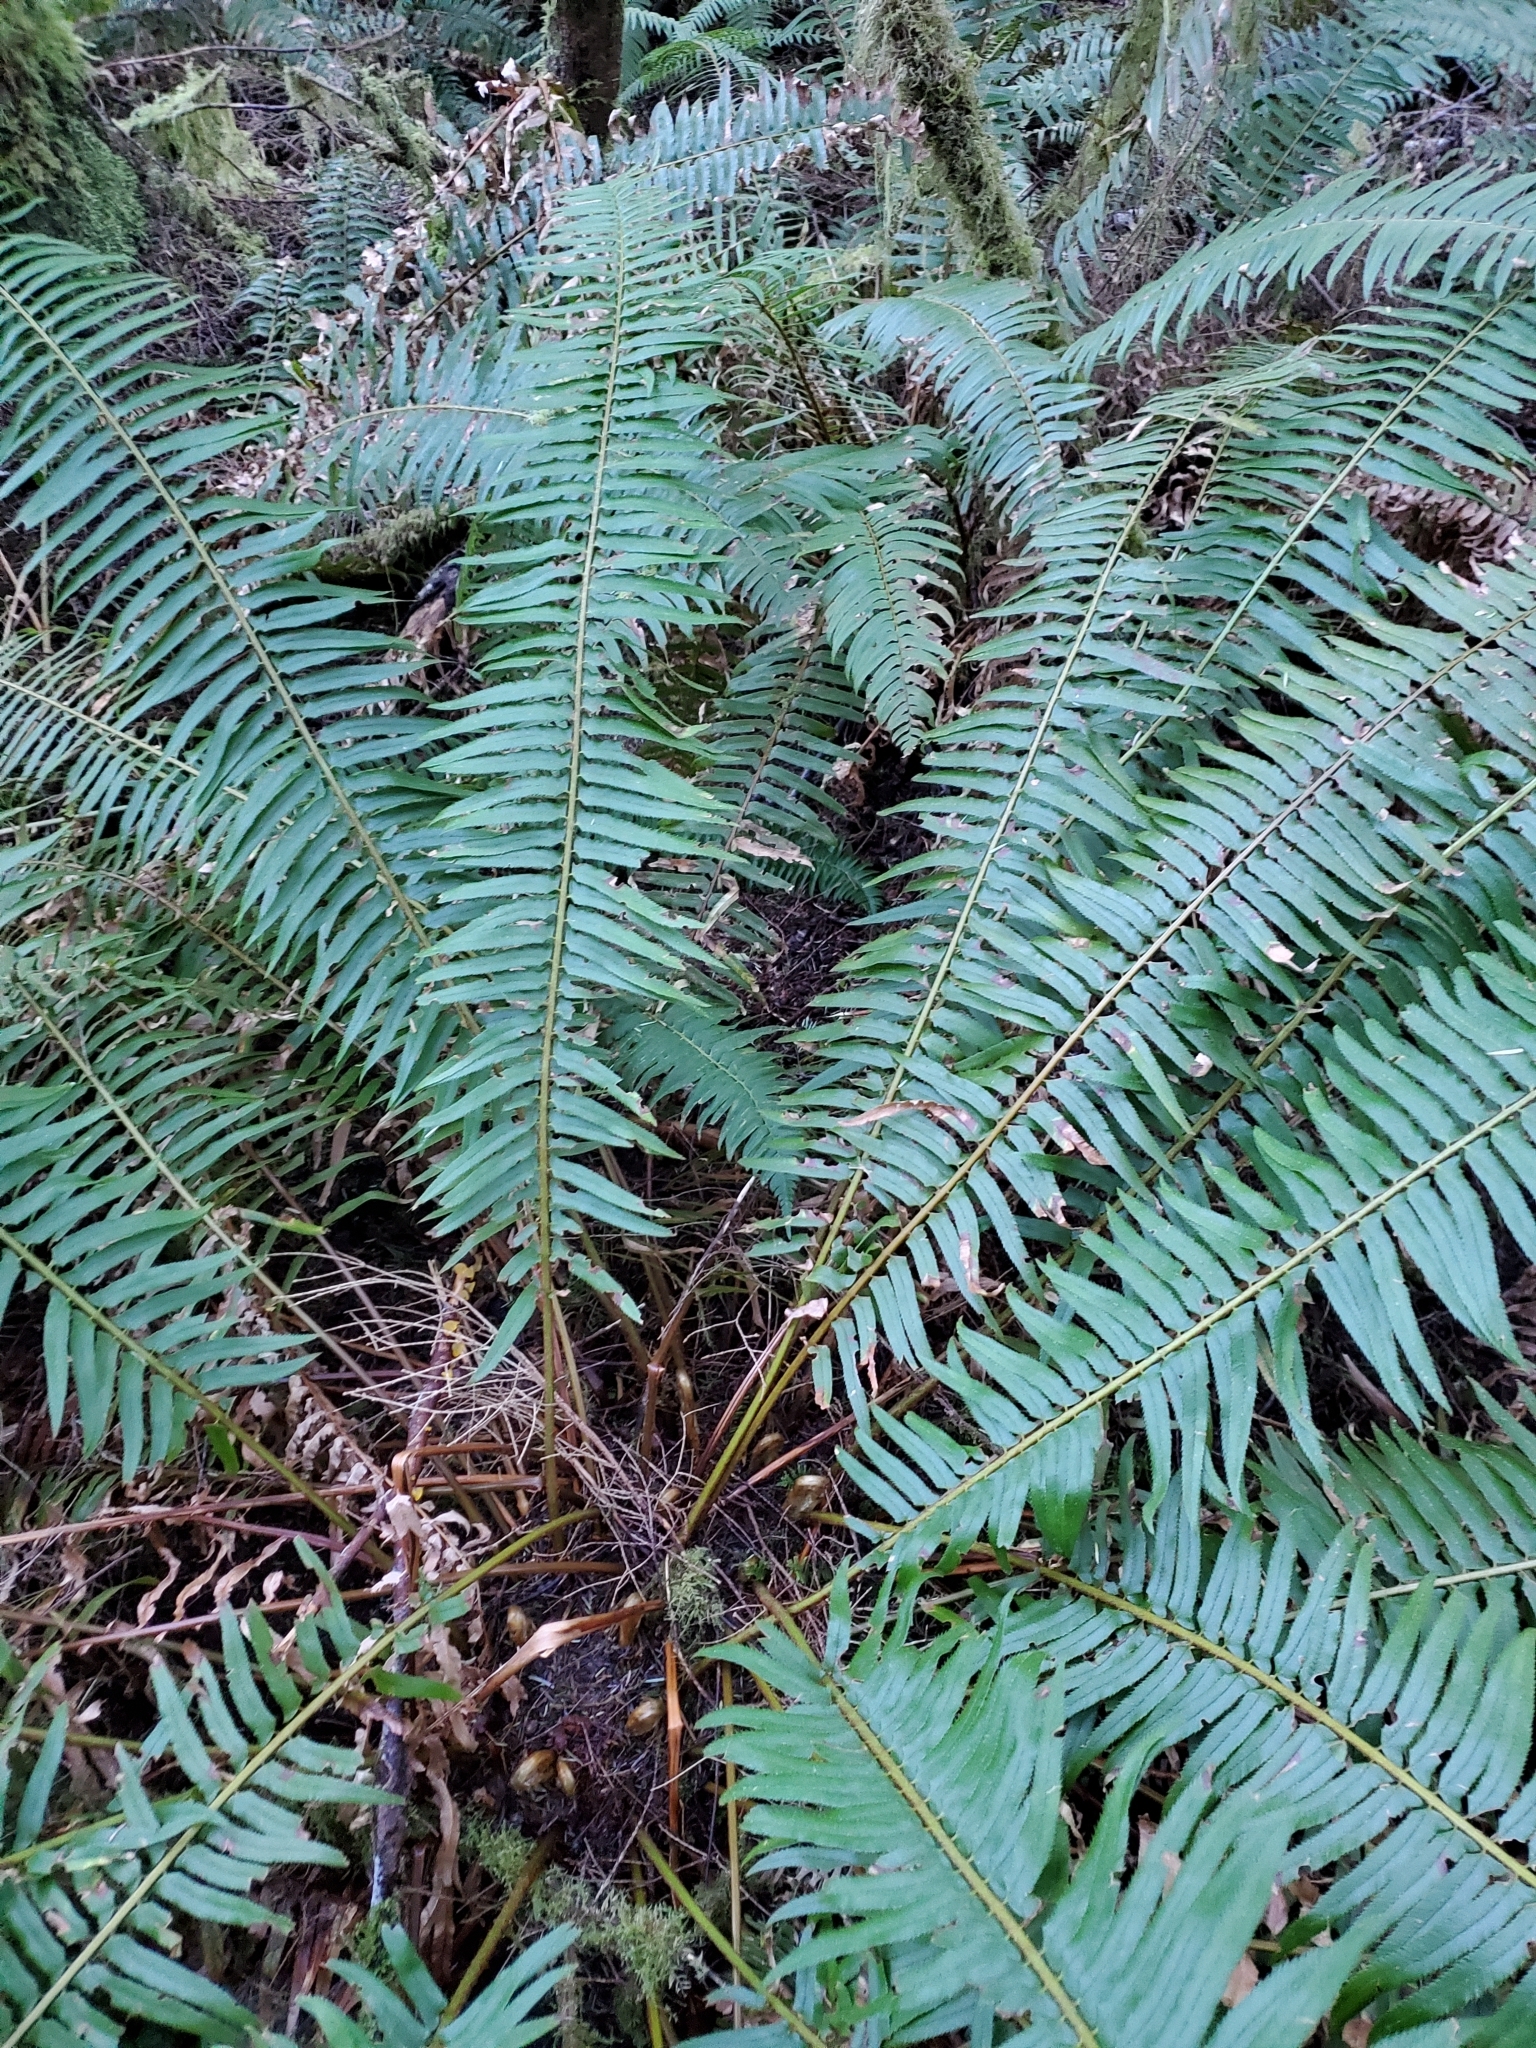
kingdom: Plantae
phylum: Tracheophyta
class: Polypodiopsida
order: Polypodiales
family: Dryopteridaceae
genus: Polystichum
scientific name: Polystichum munitum
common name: Western sword-fern
